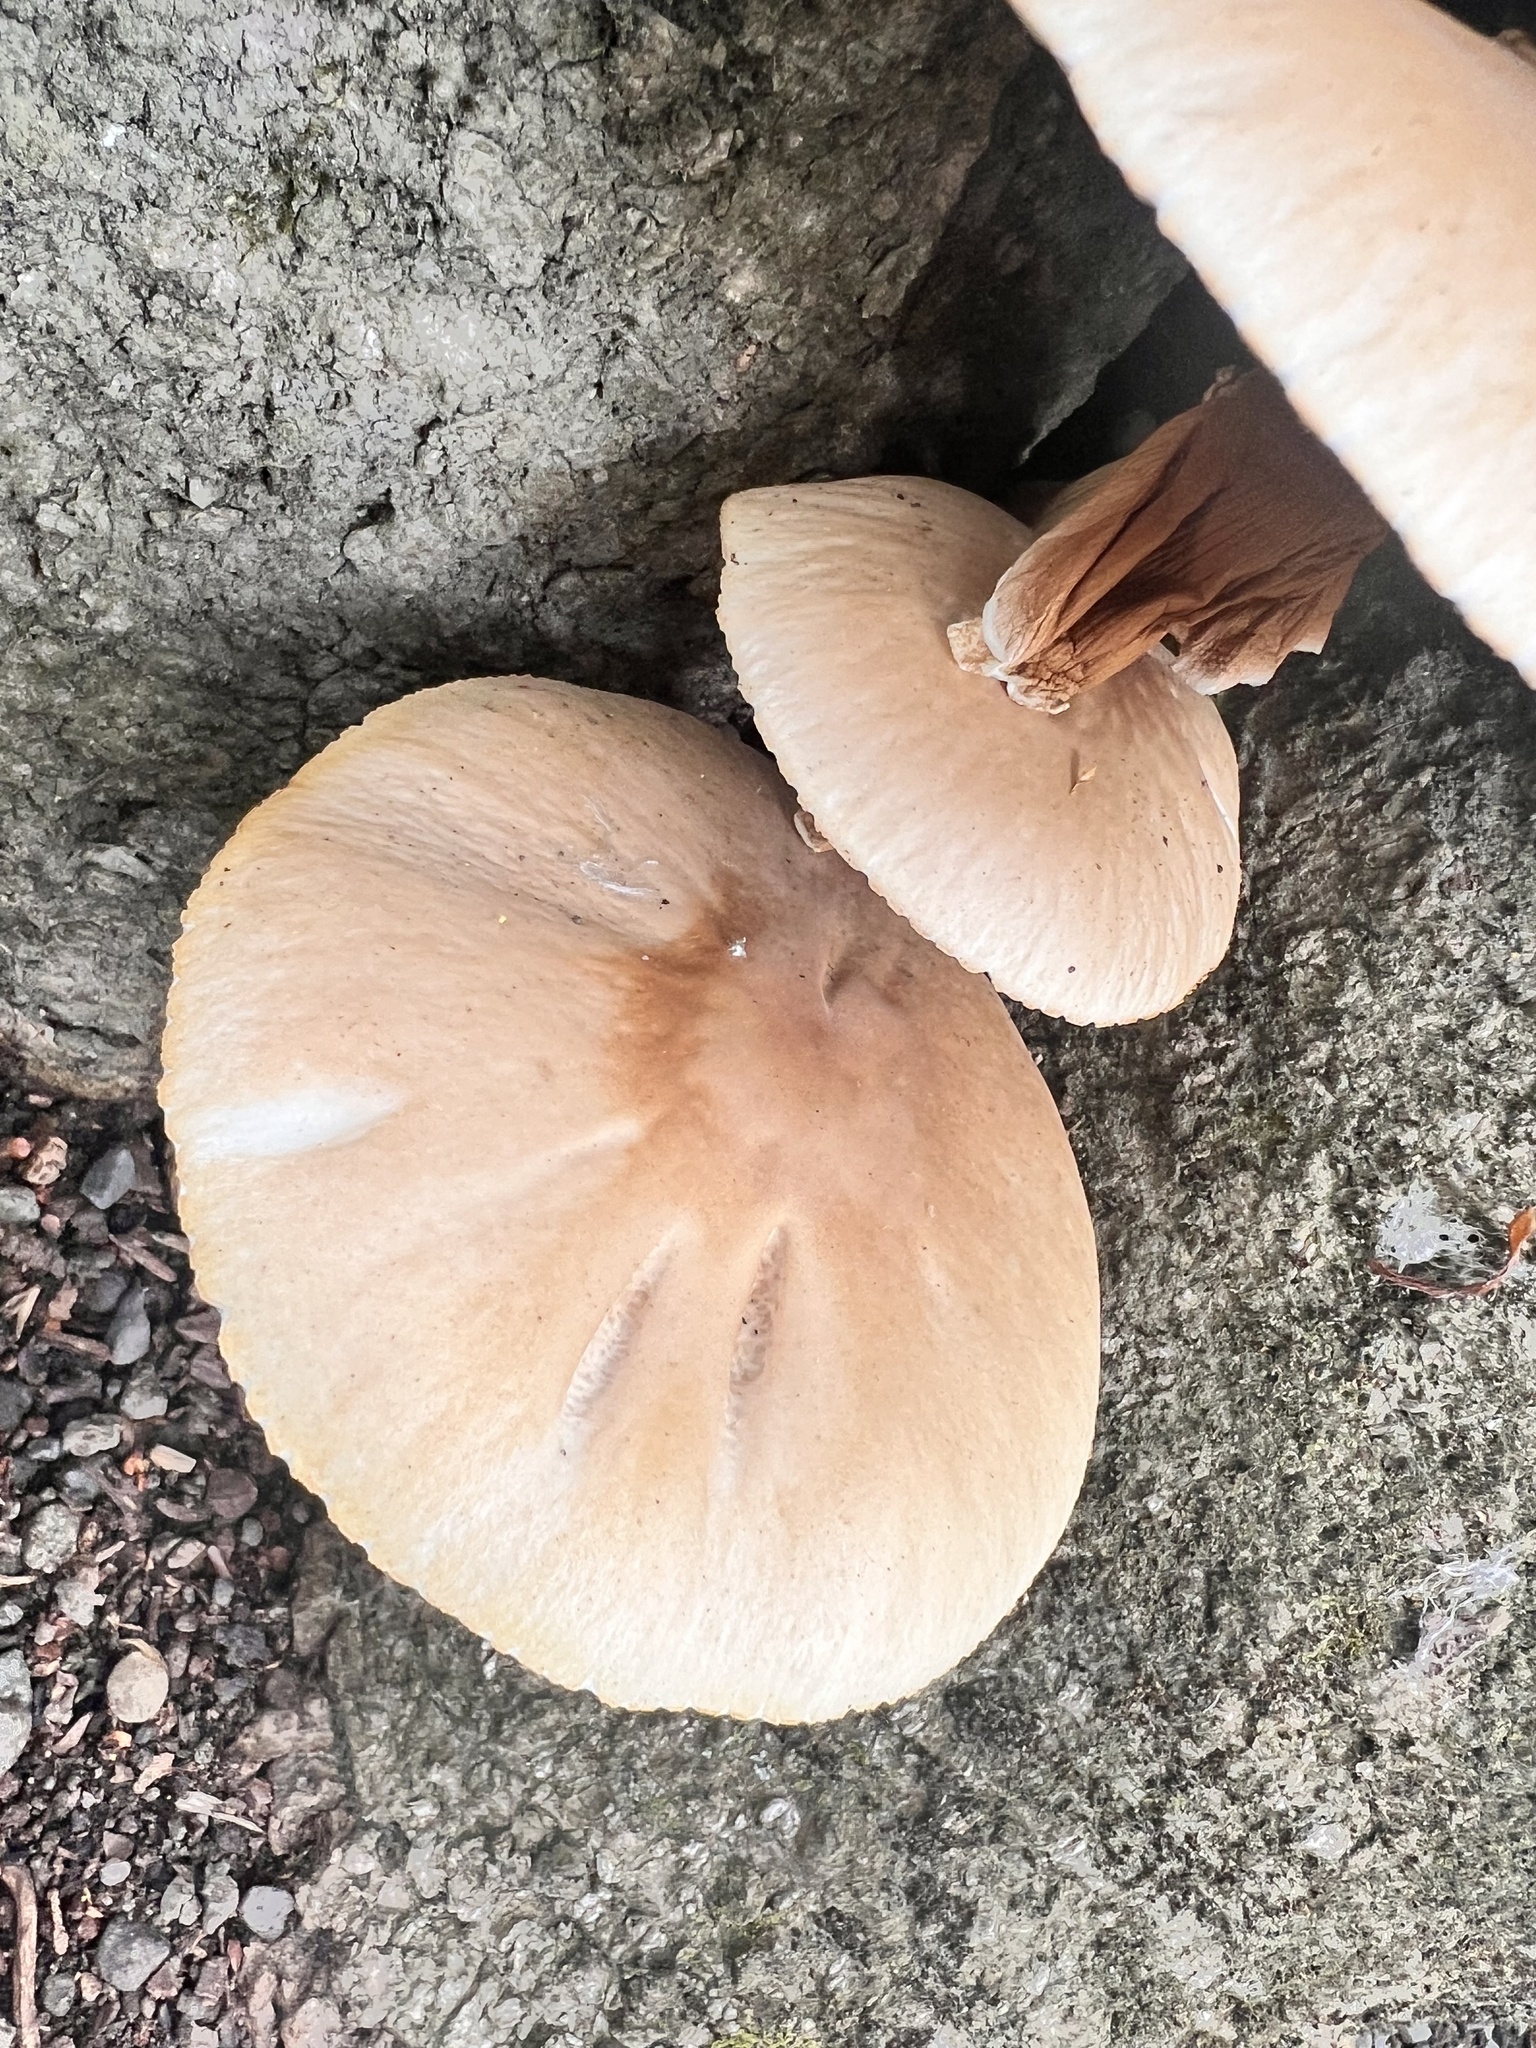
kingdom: Fungi
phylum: Basidiomycota
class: Agaricomycetes
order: Agaricales
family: Tubariaceae
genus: Cyclocybe
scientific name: Cyclocybe parasitica
